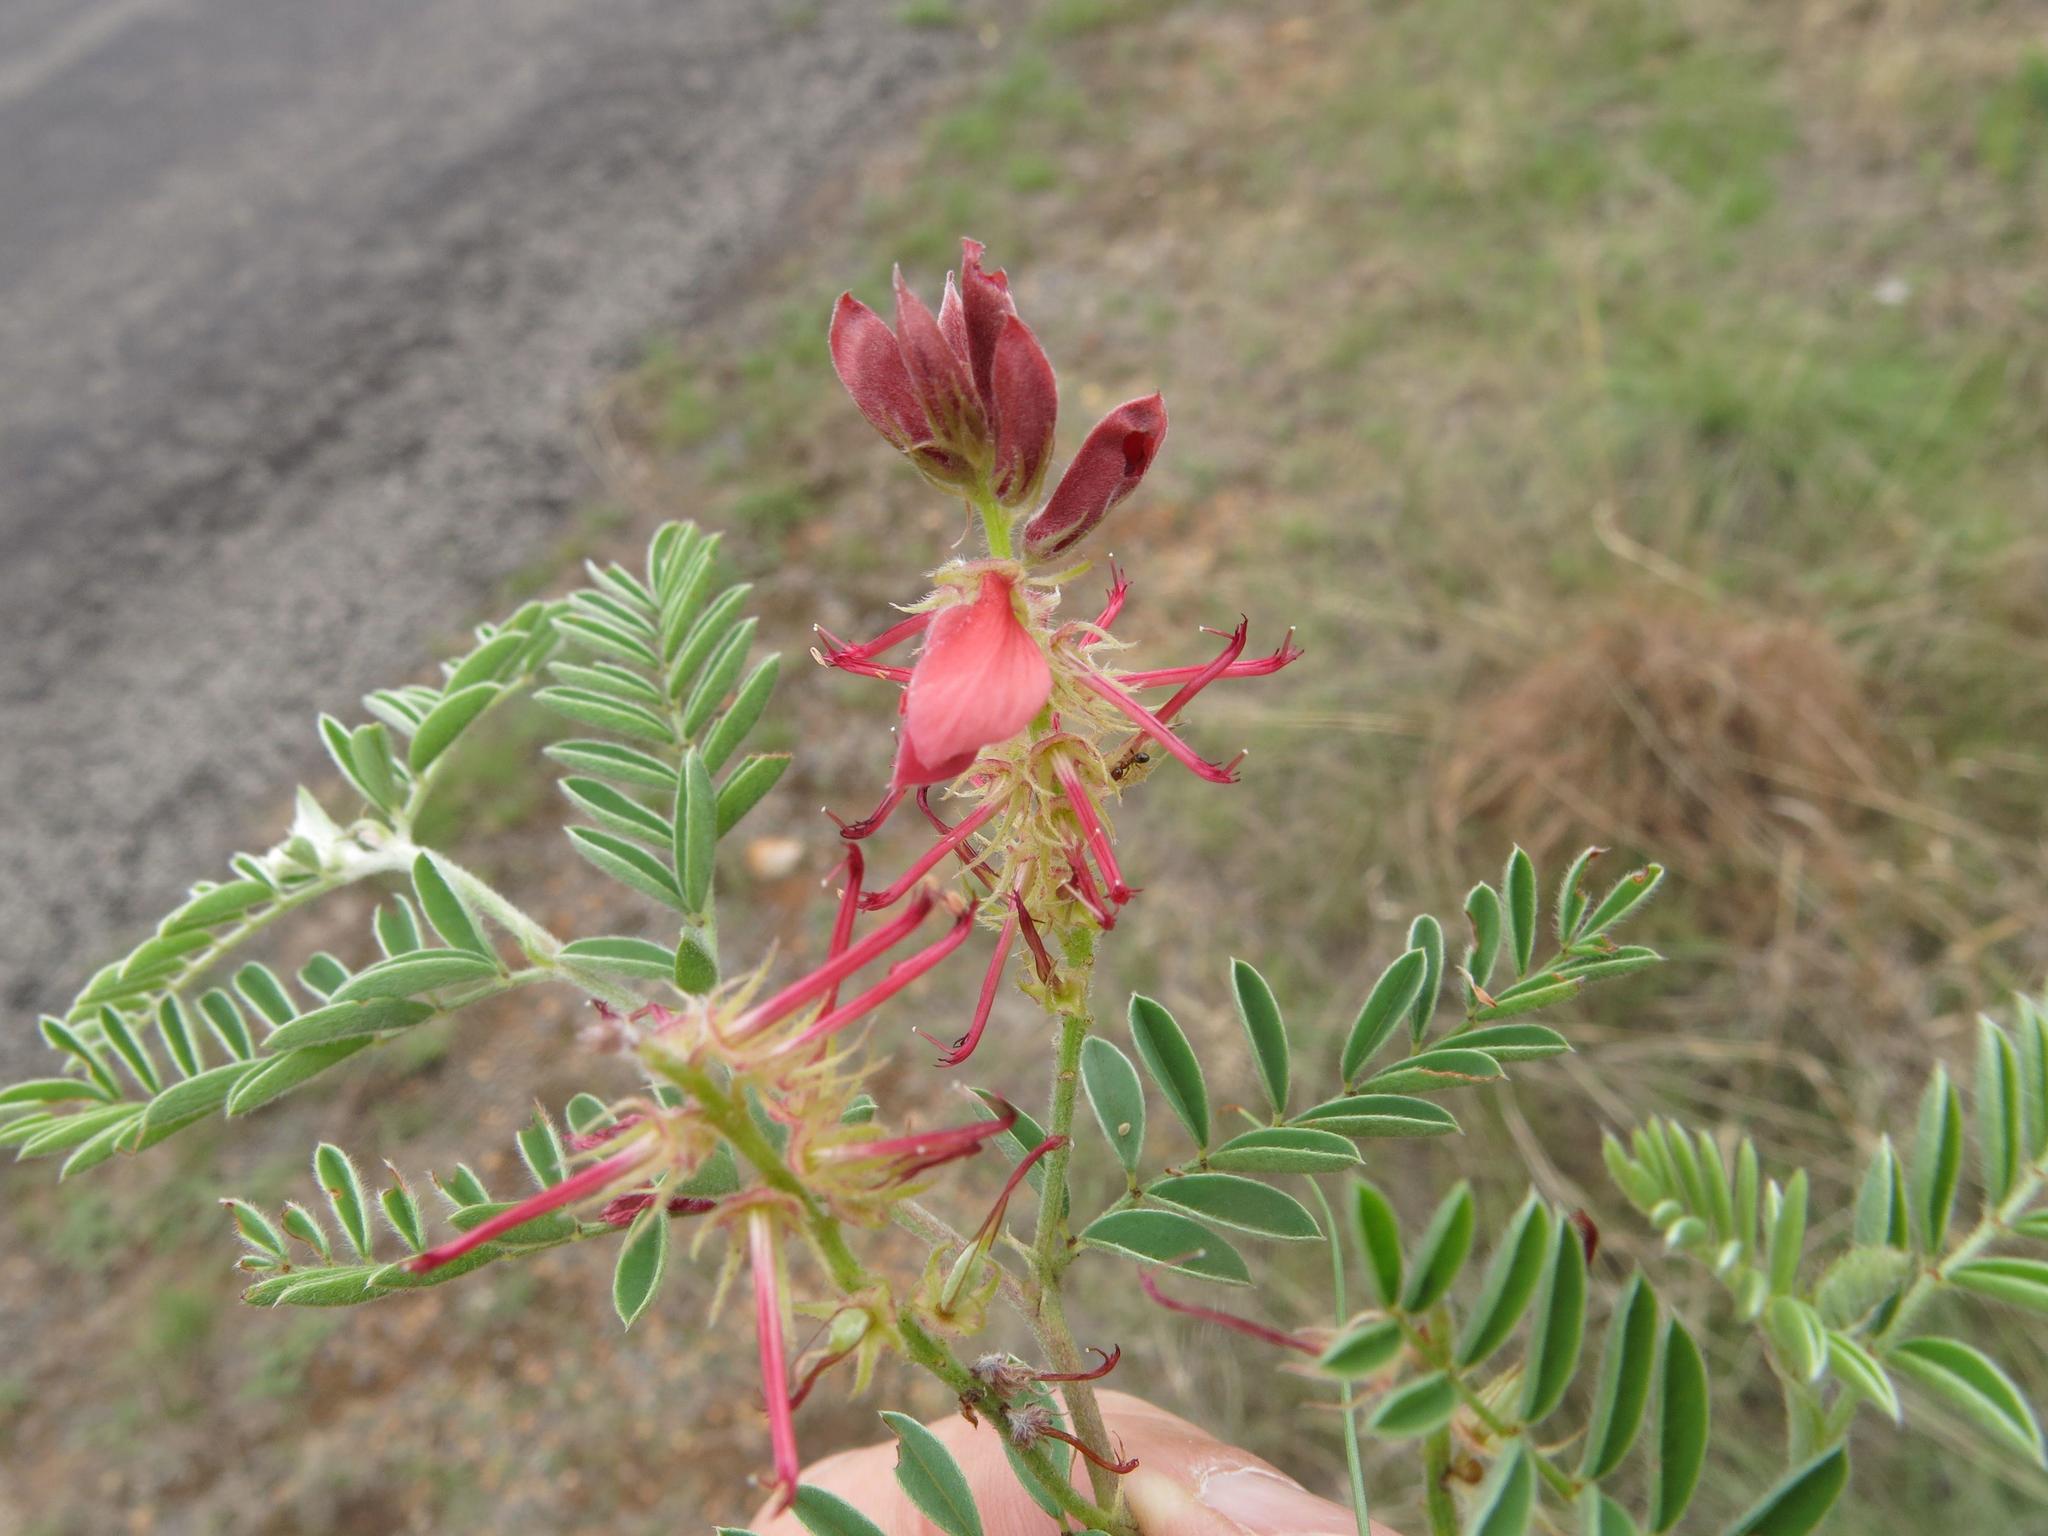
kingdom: Plantae
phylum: Tracheophyta
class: Magnoliopsida
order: Fabales
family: Fabaceae
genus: Indigofera
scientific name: Indigofera oxytropis
